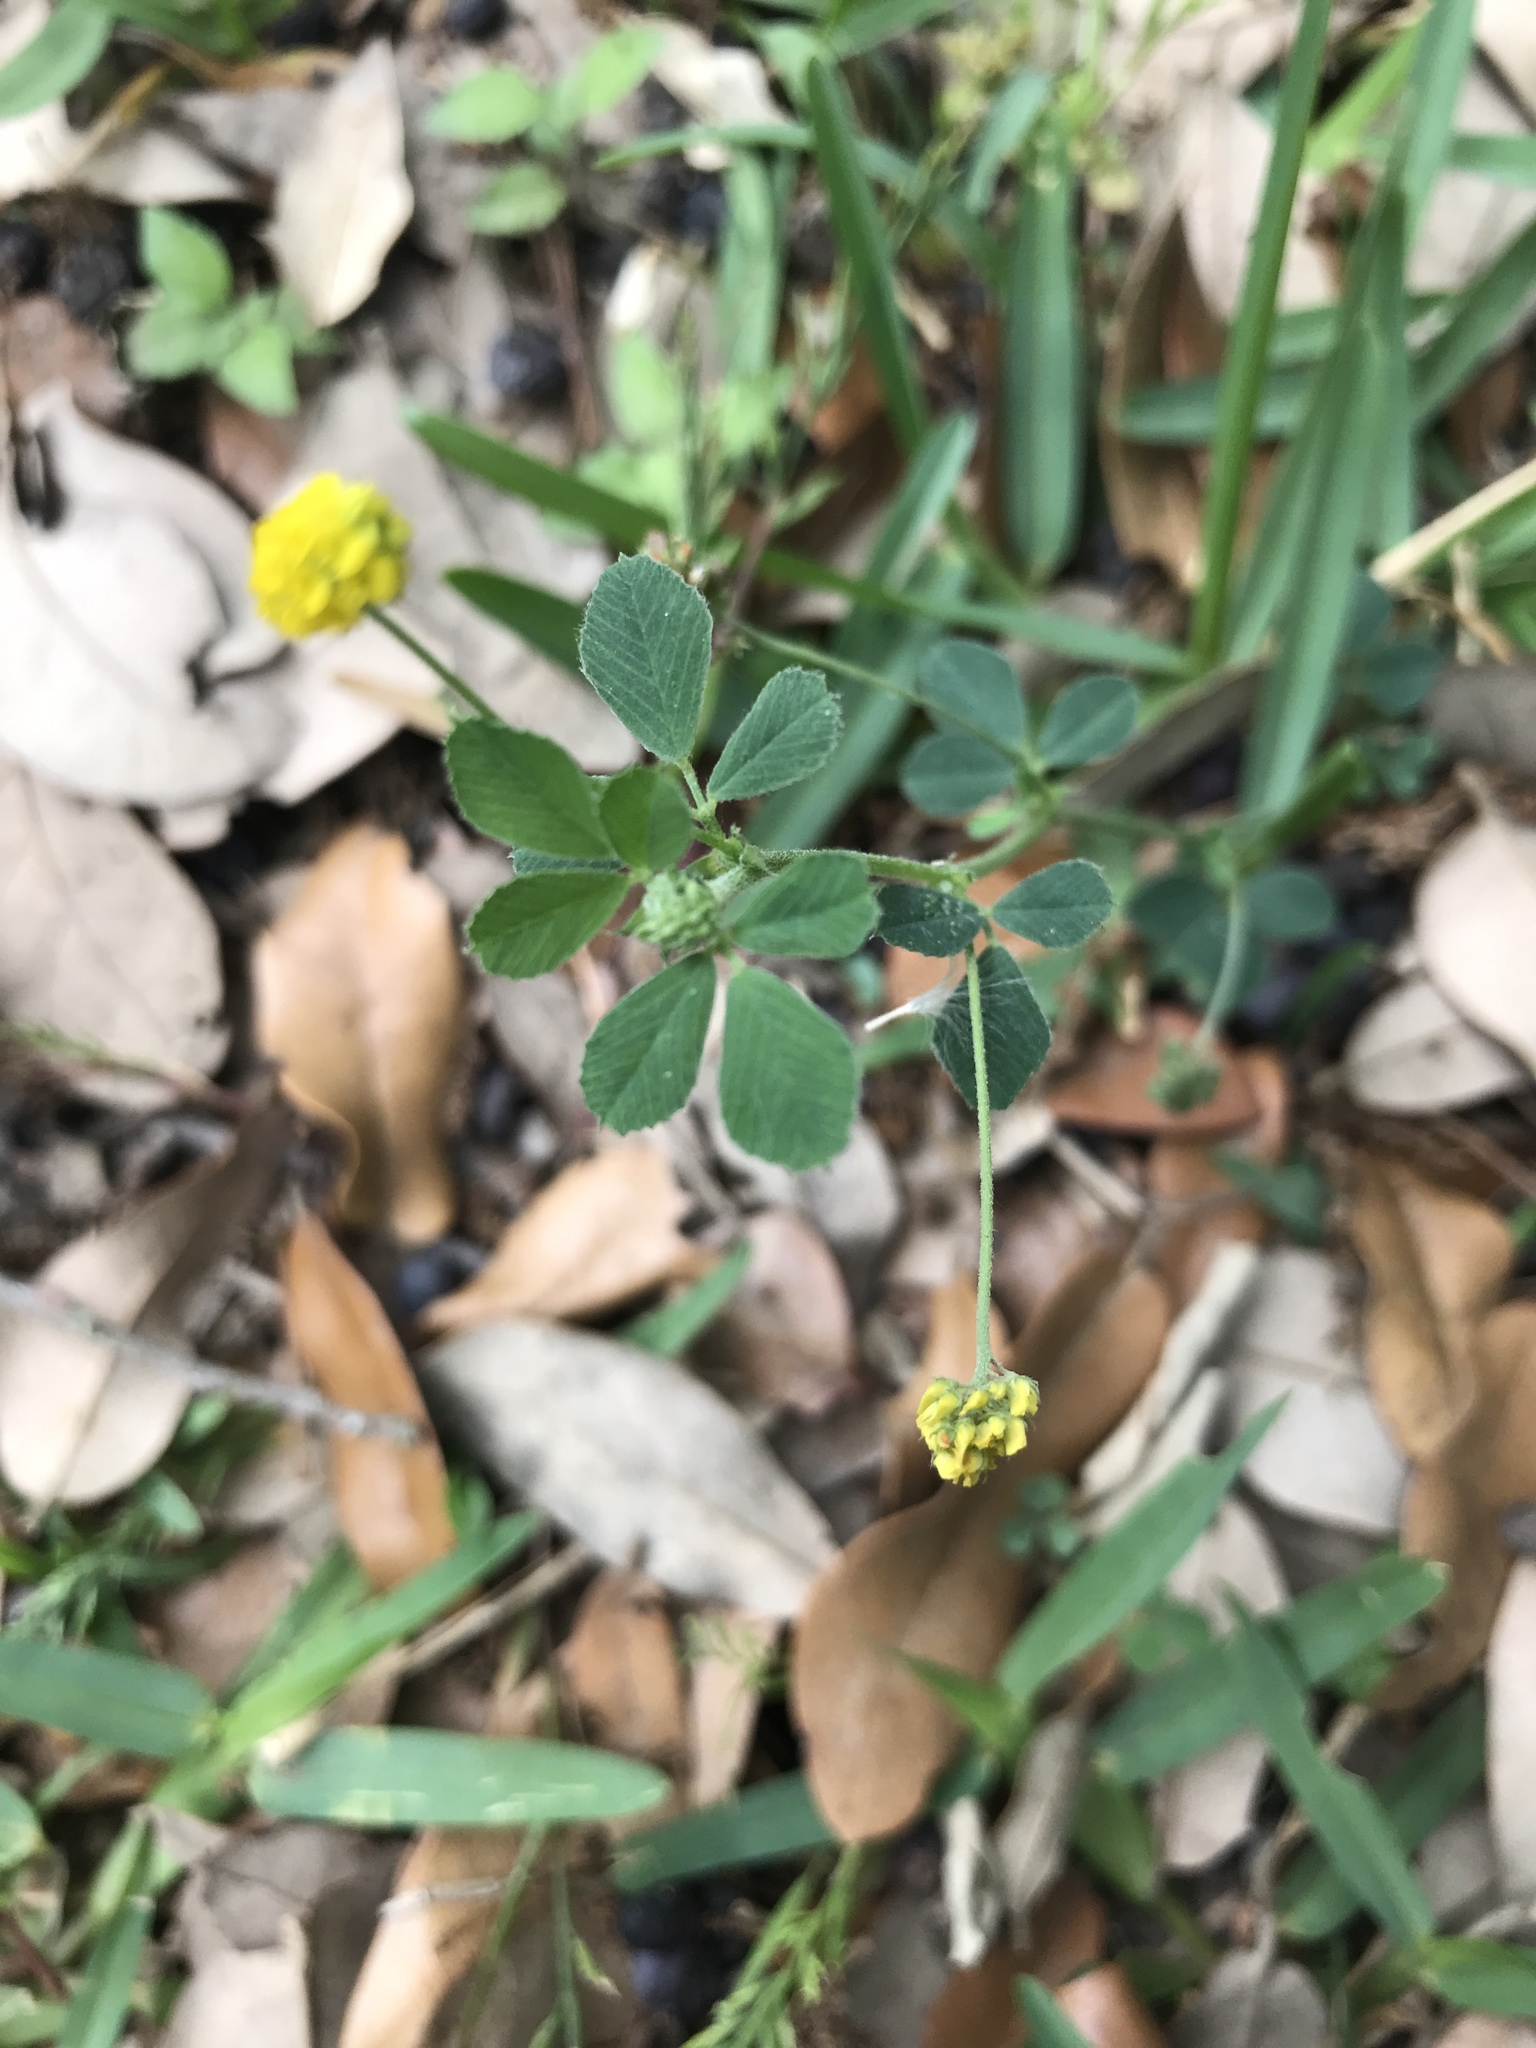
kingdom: Plantae
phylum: Tracheophyta
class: Magnoliopsida
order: Fabales
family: Fabaceae
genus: Medicago
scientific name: Medicago lupulina
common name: Black medick
